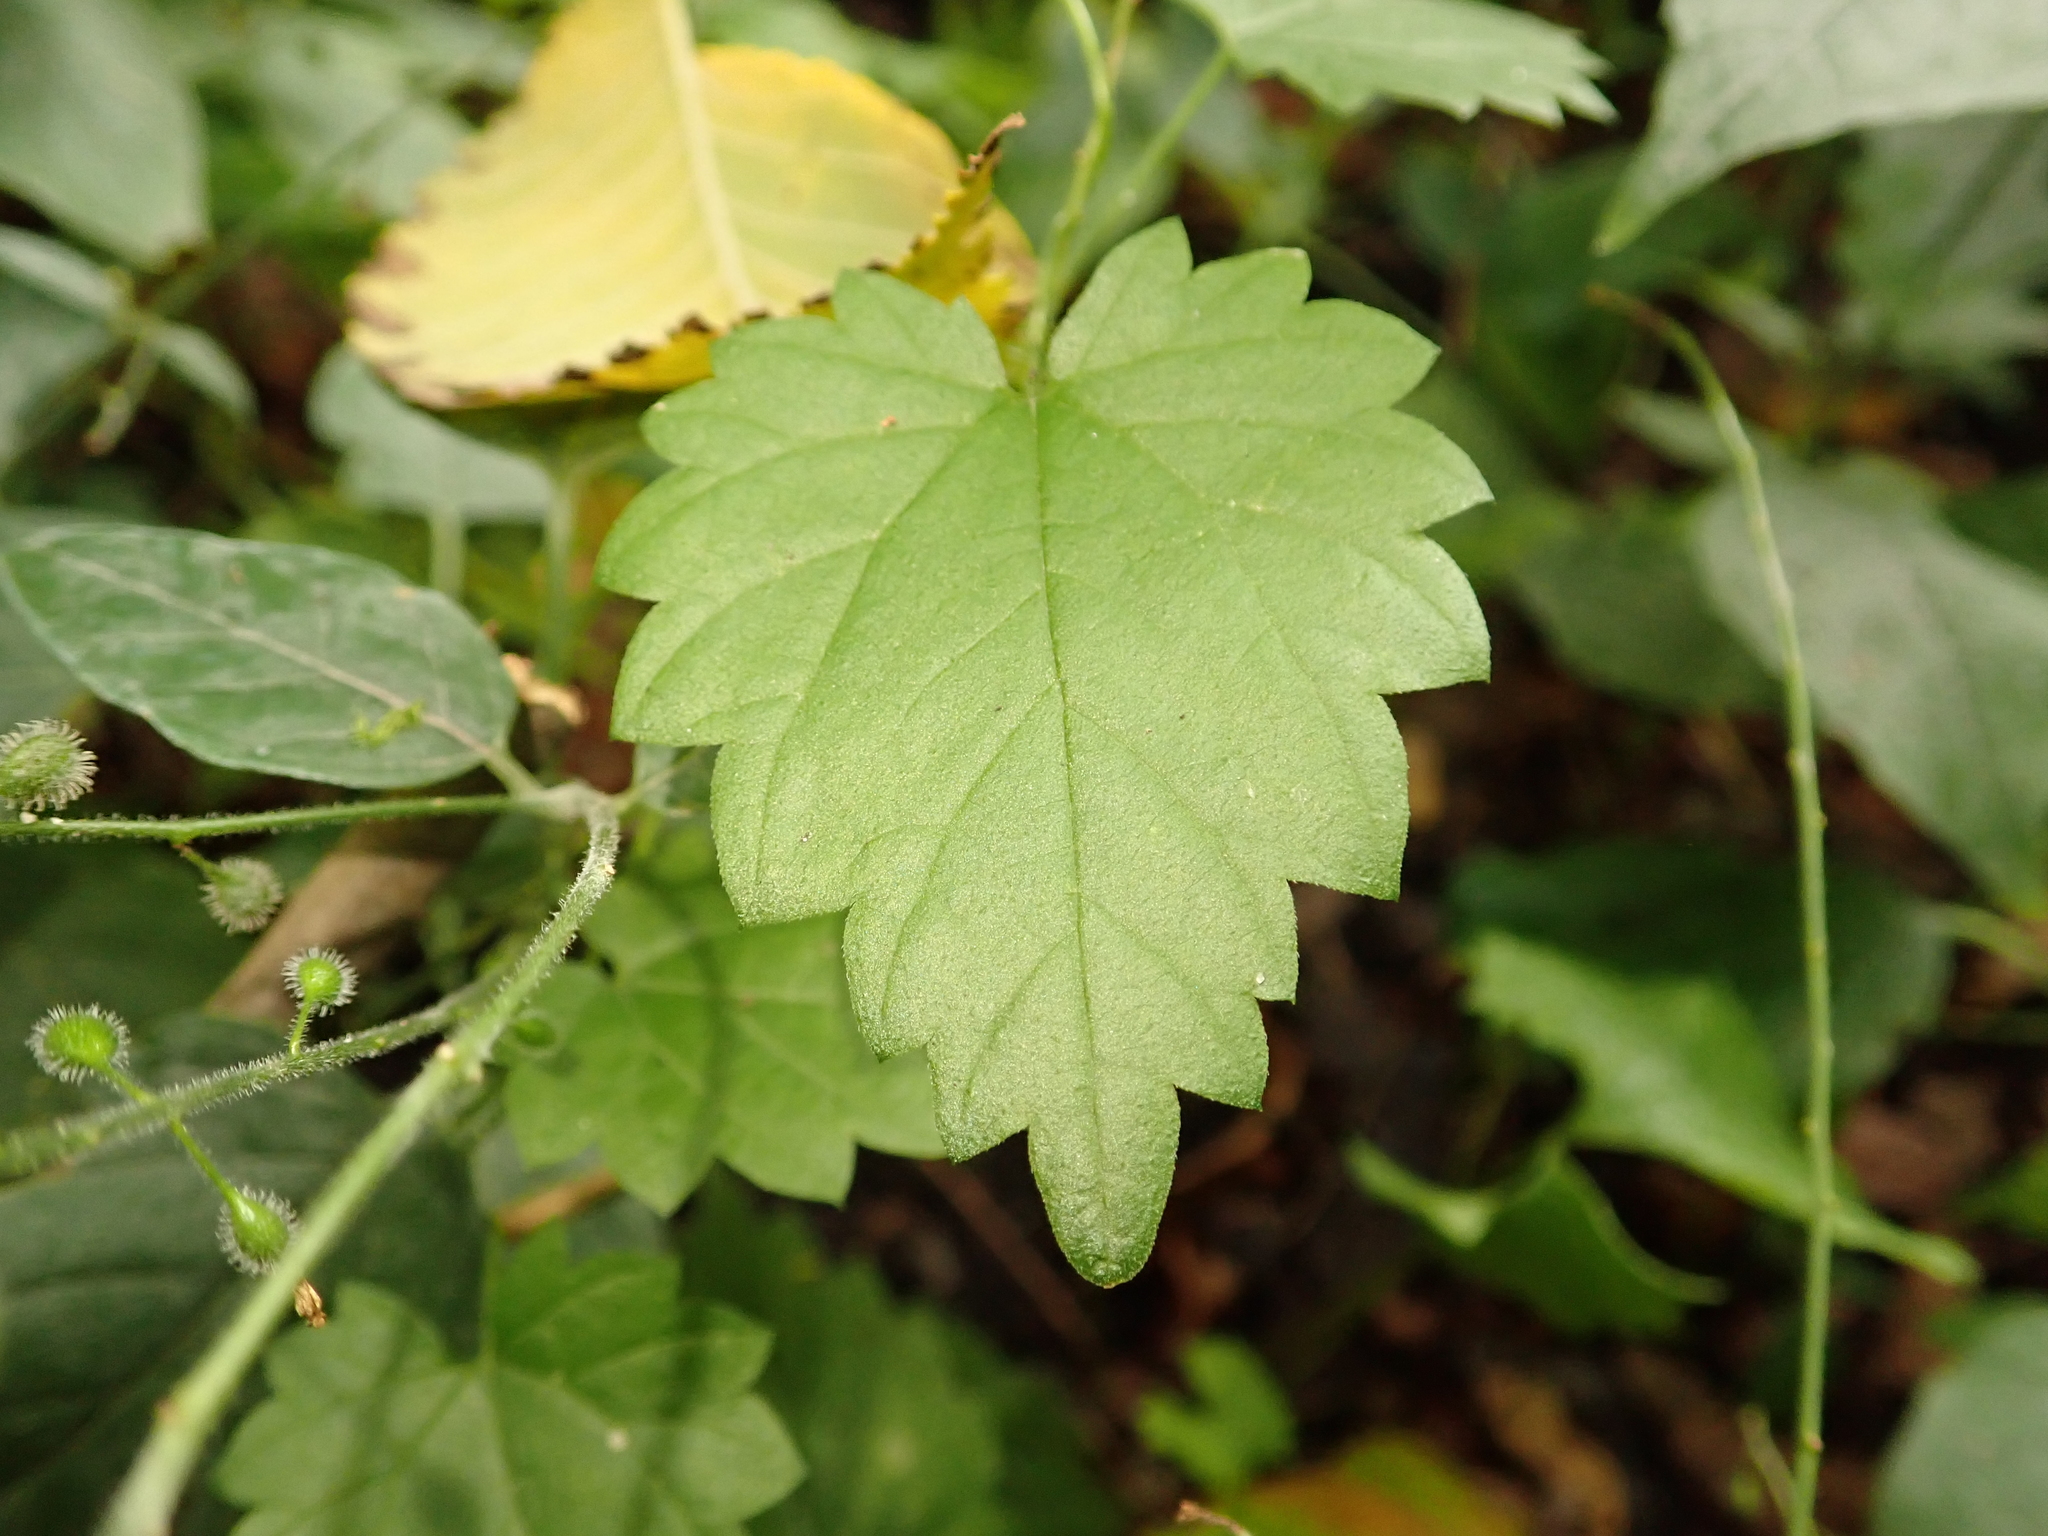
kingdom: Plantae
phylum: Tracheophyta
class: Magnoliopsida
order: Rosales
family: Cannabaceae
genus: Humulus
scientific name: Humulus lupulus
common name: Hop
